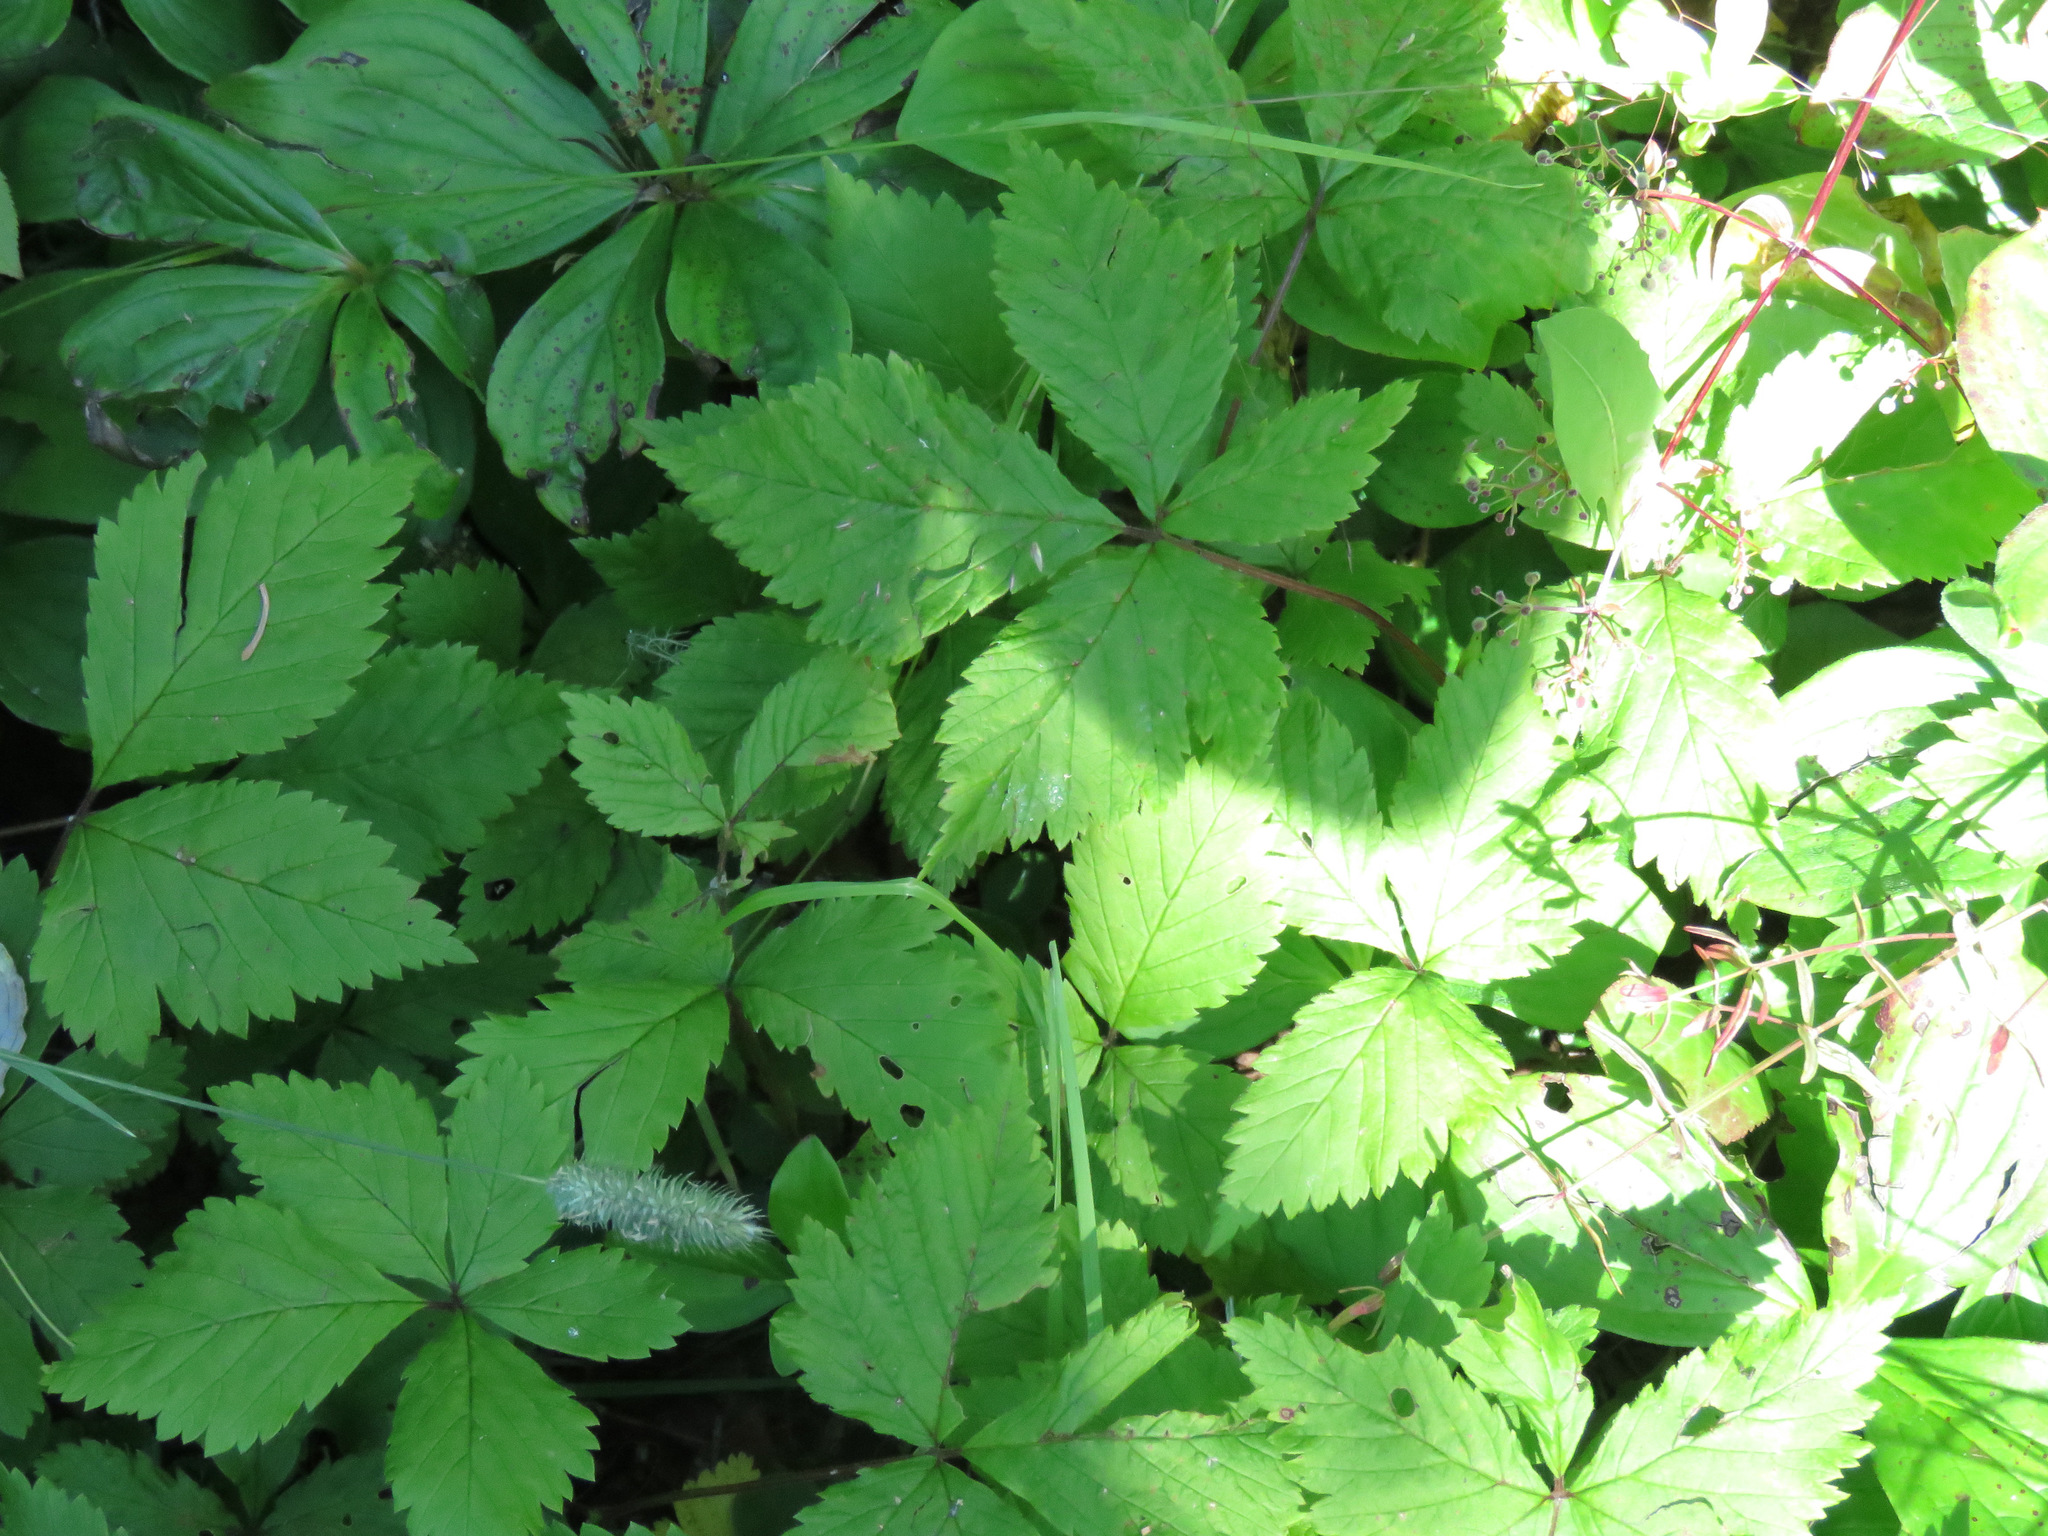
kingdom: Plantae
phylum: Tracheophyta
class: Magnoliopsida
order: Rosales
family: Rosaceae
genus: Rubus
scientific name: Rubus pubescens
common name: Dwarf raspberry
